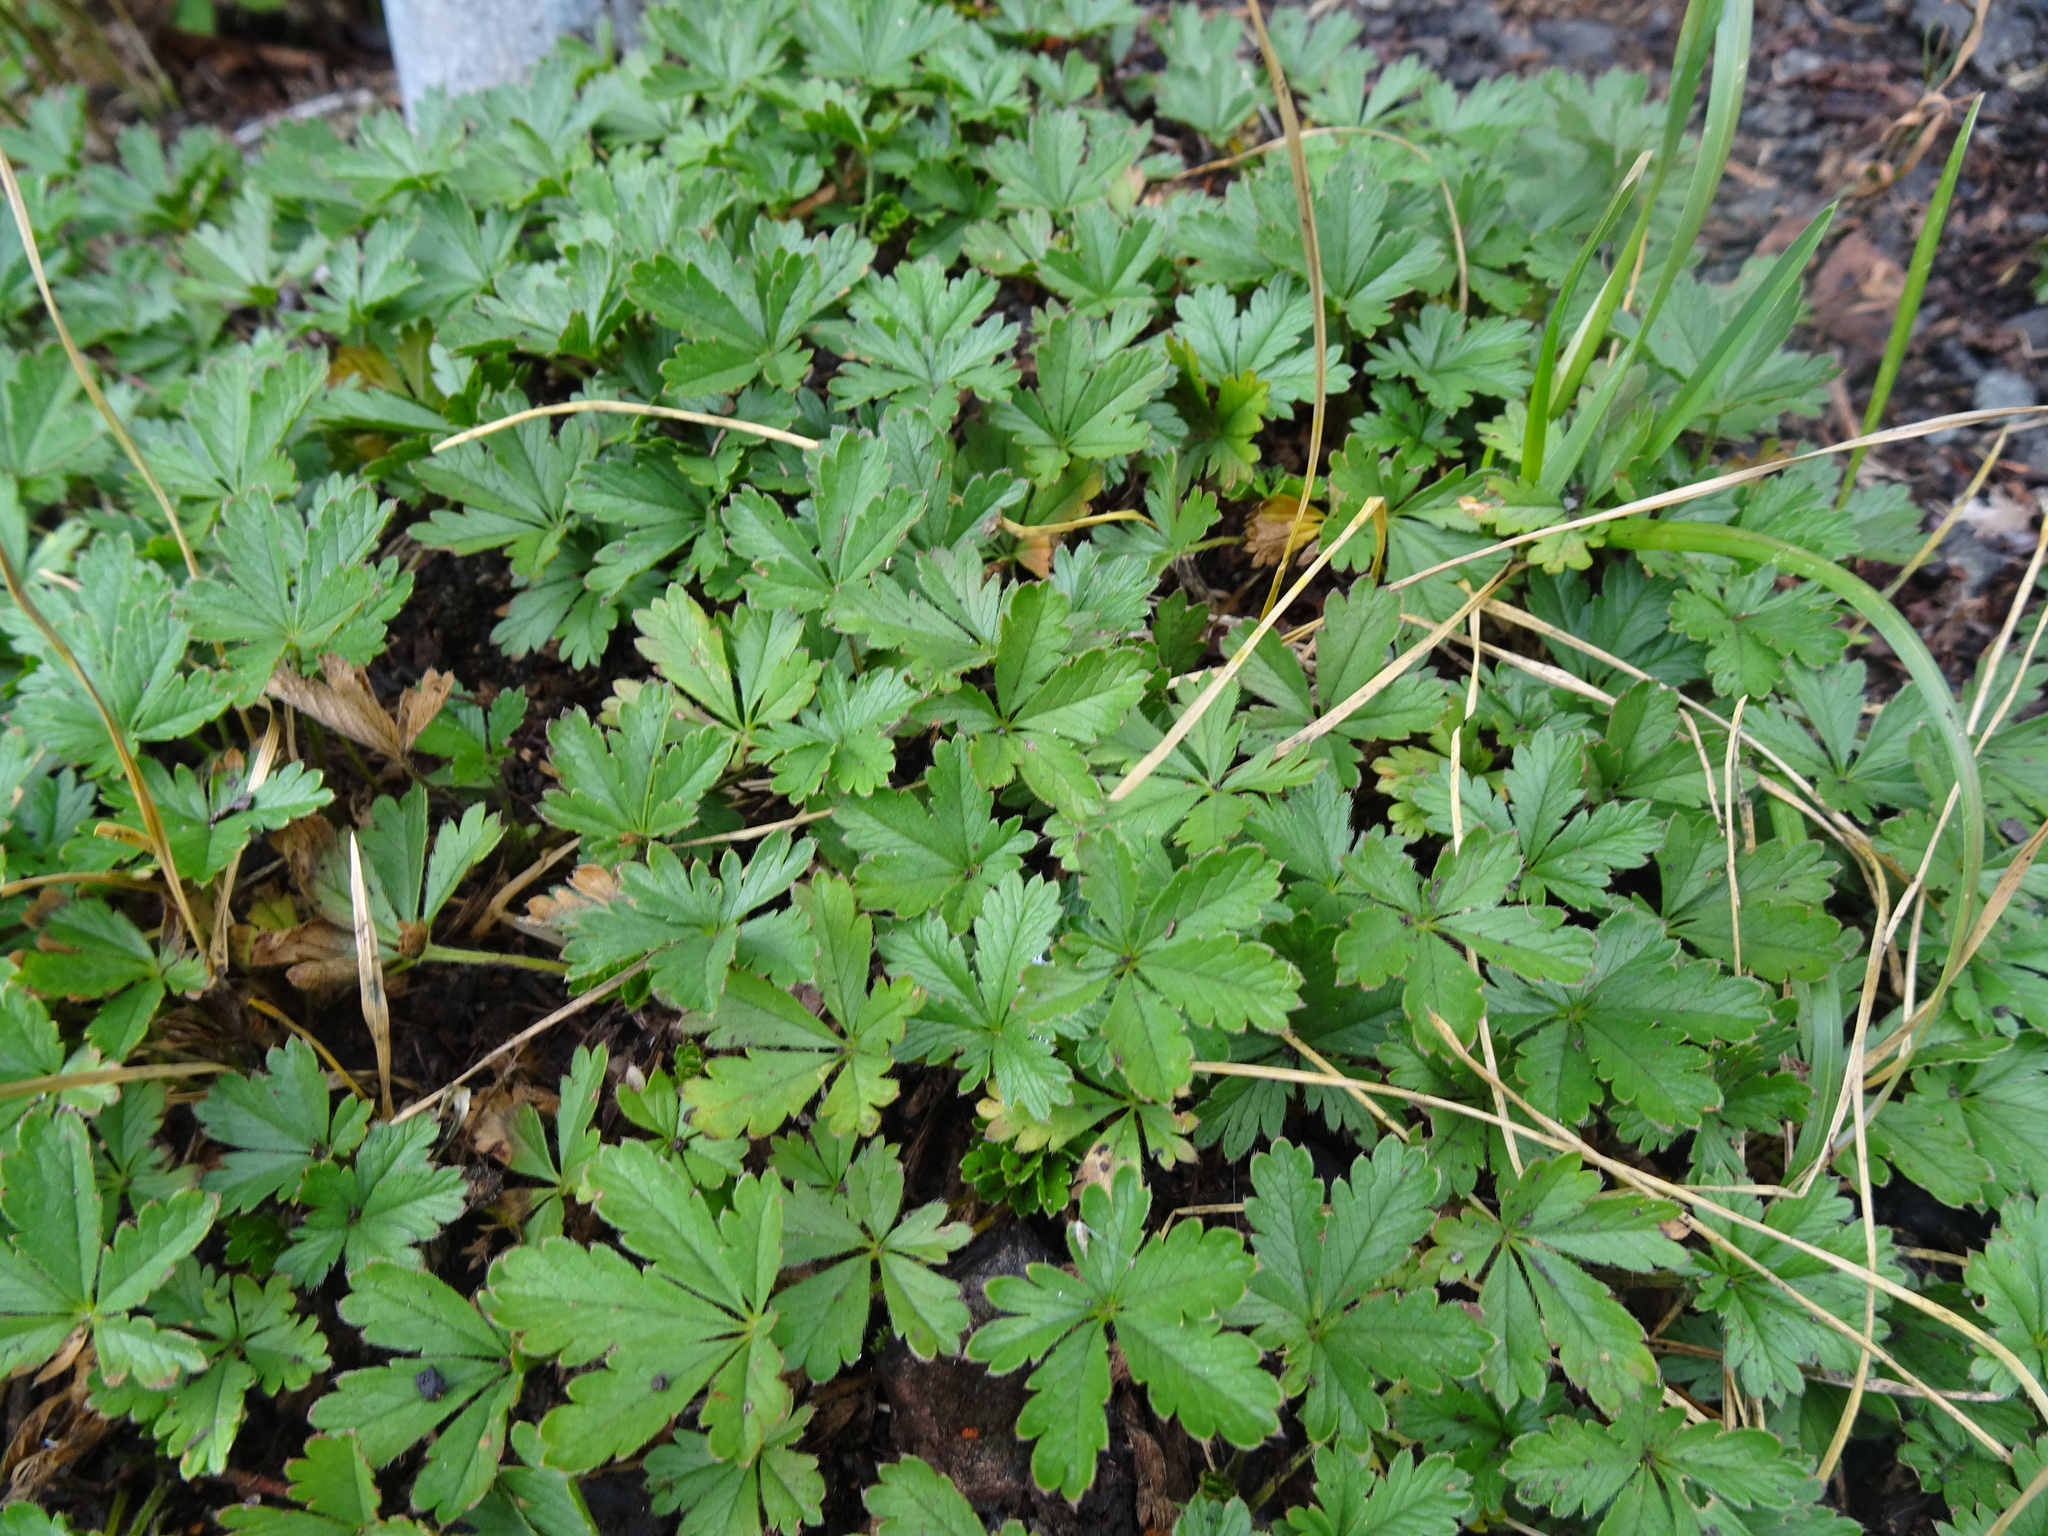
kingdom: Plantae
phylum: Tracheophyta
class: Magnoliopsida
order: Rosales
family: Rosaceae
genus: Potentilla
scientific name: Potentilla reptans
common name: Creeping cinquefoil
